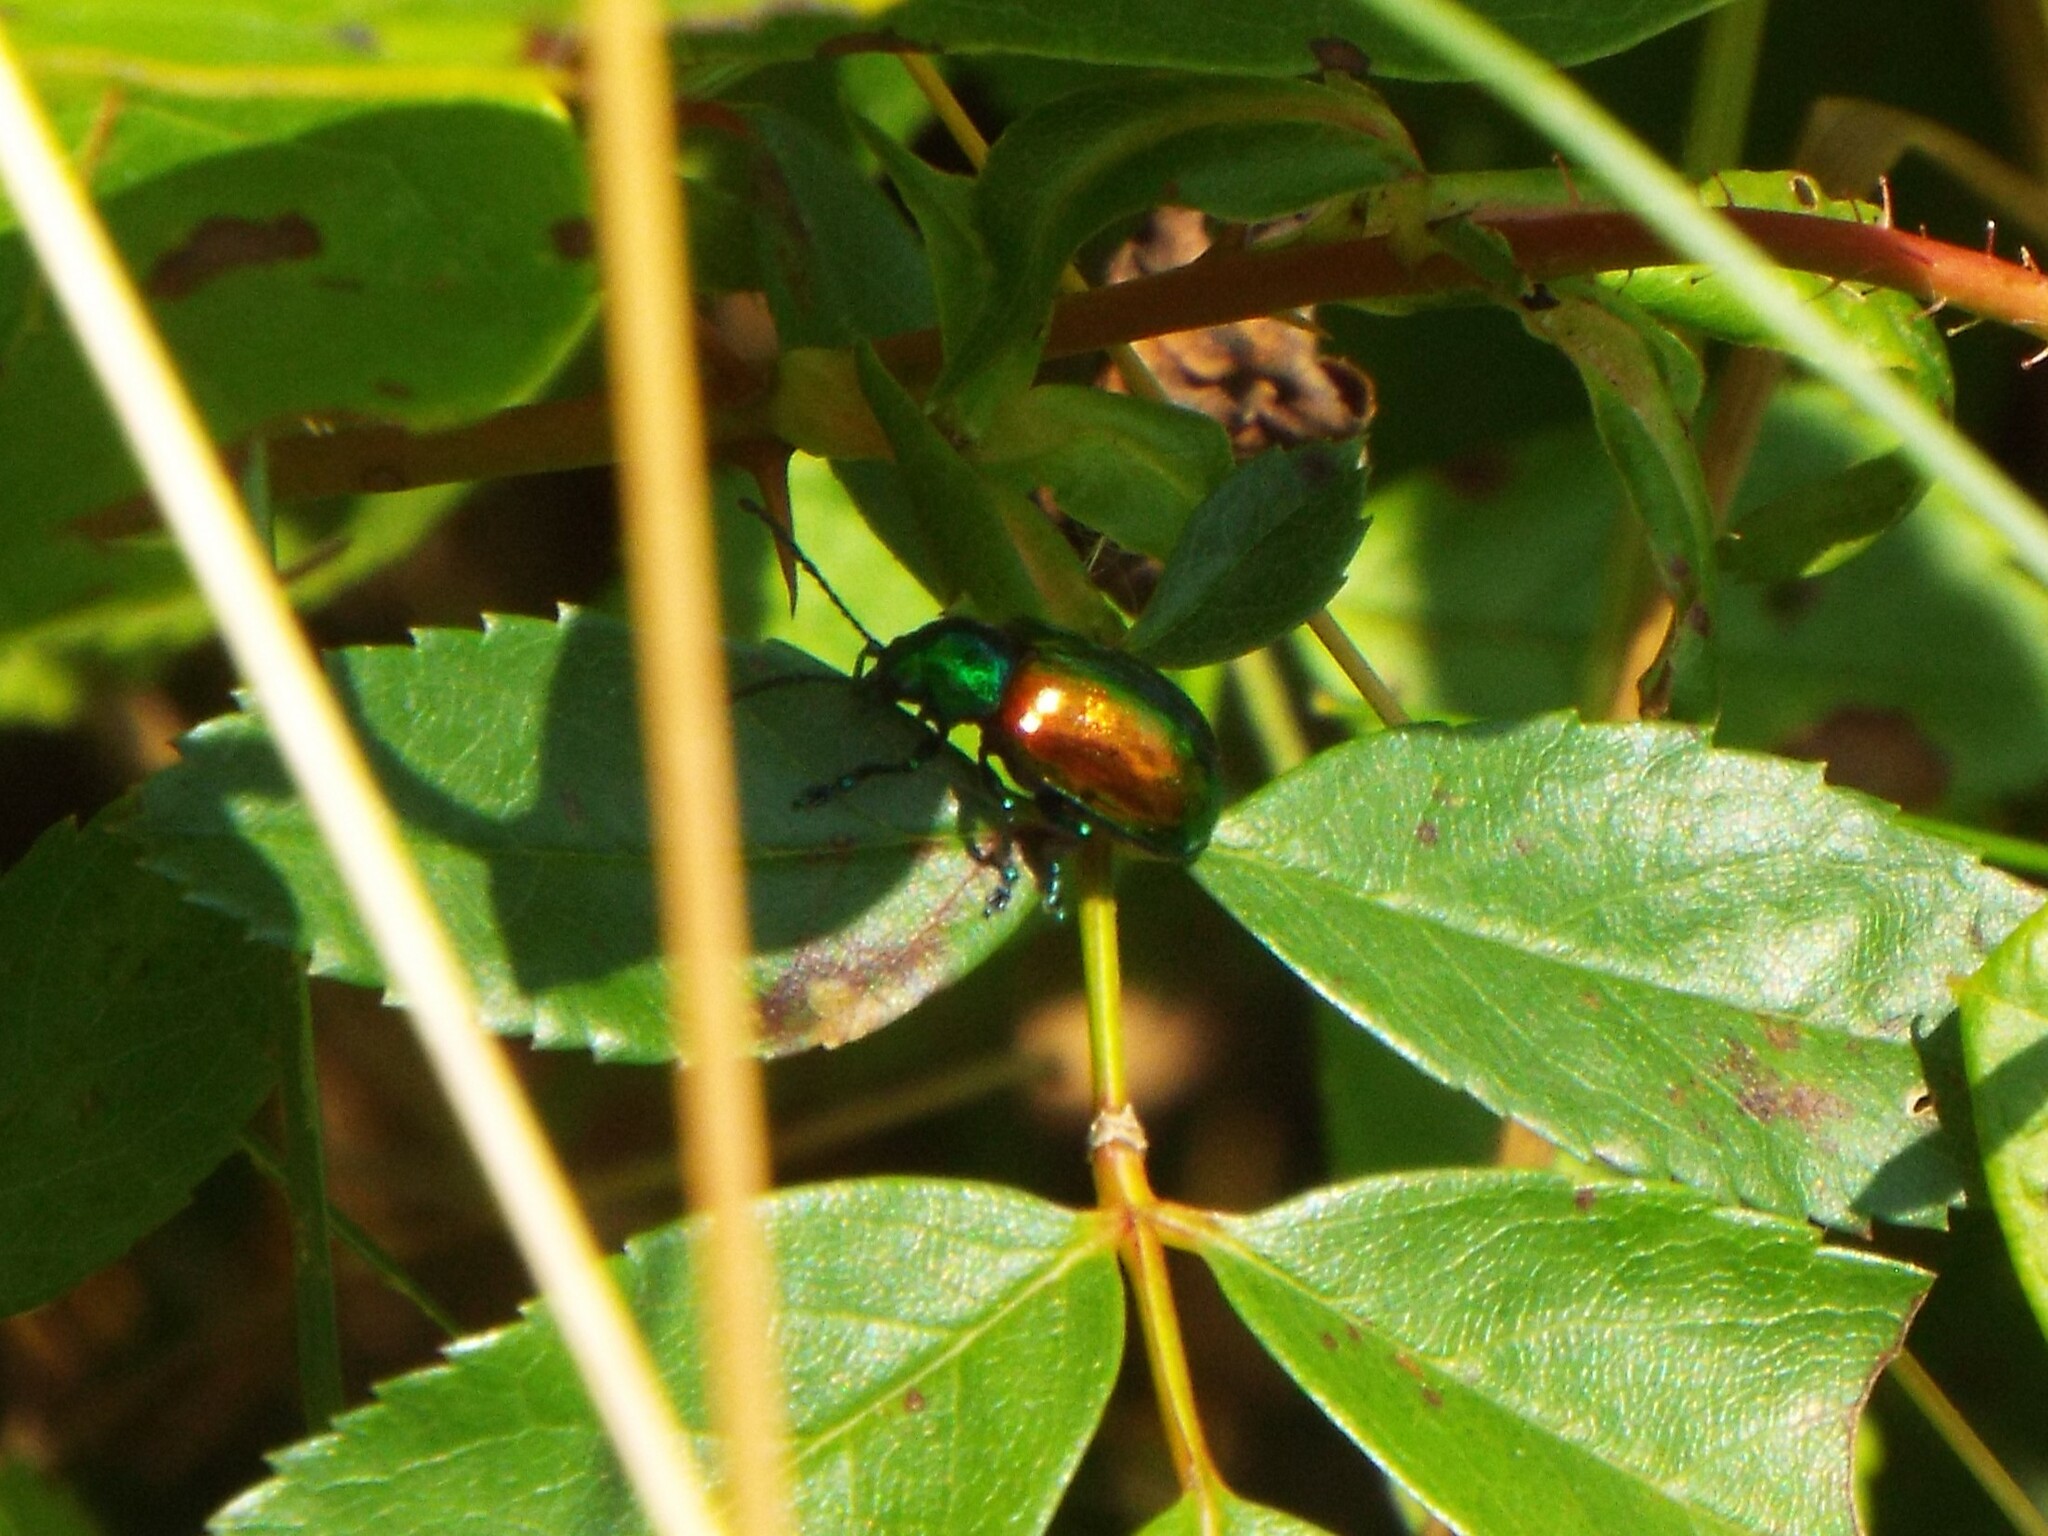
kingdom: Animalia
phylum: Arthropoda
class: Insecta
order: Coleoptera
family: Chrysomelidae
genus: Chrysochus
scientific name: Chrysochus auratus
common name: Dogbane leaf beetle
